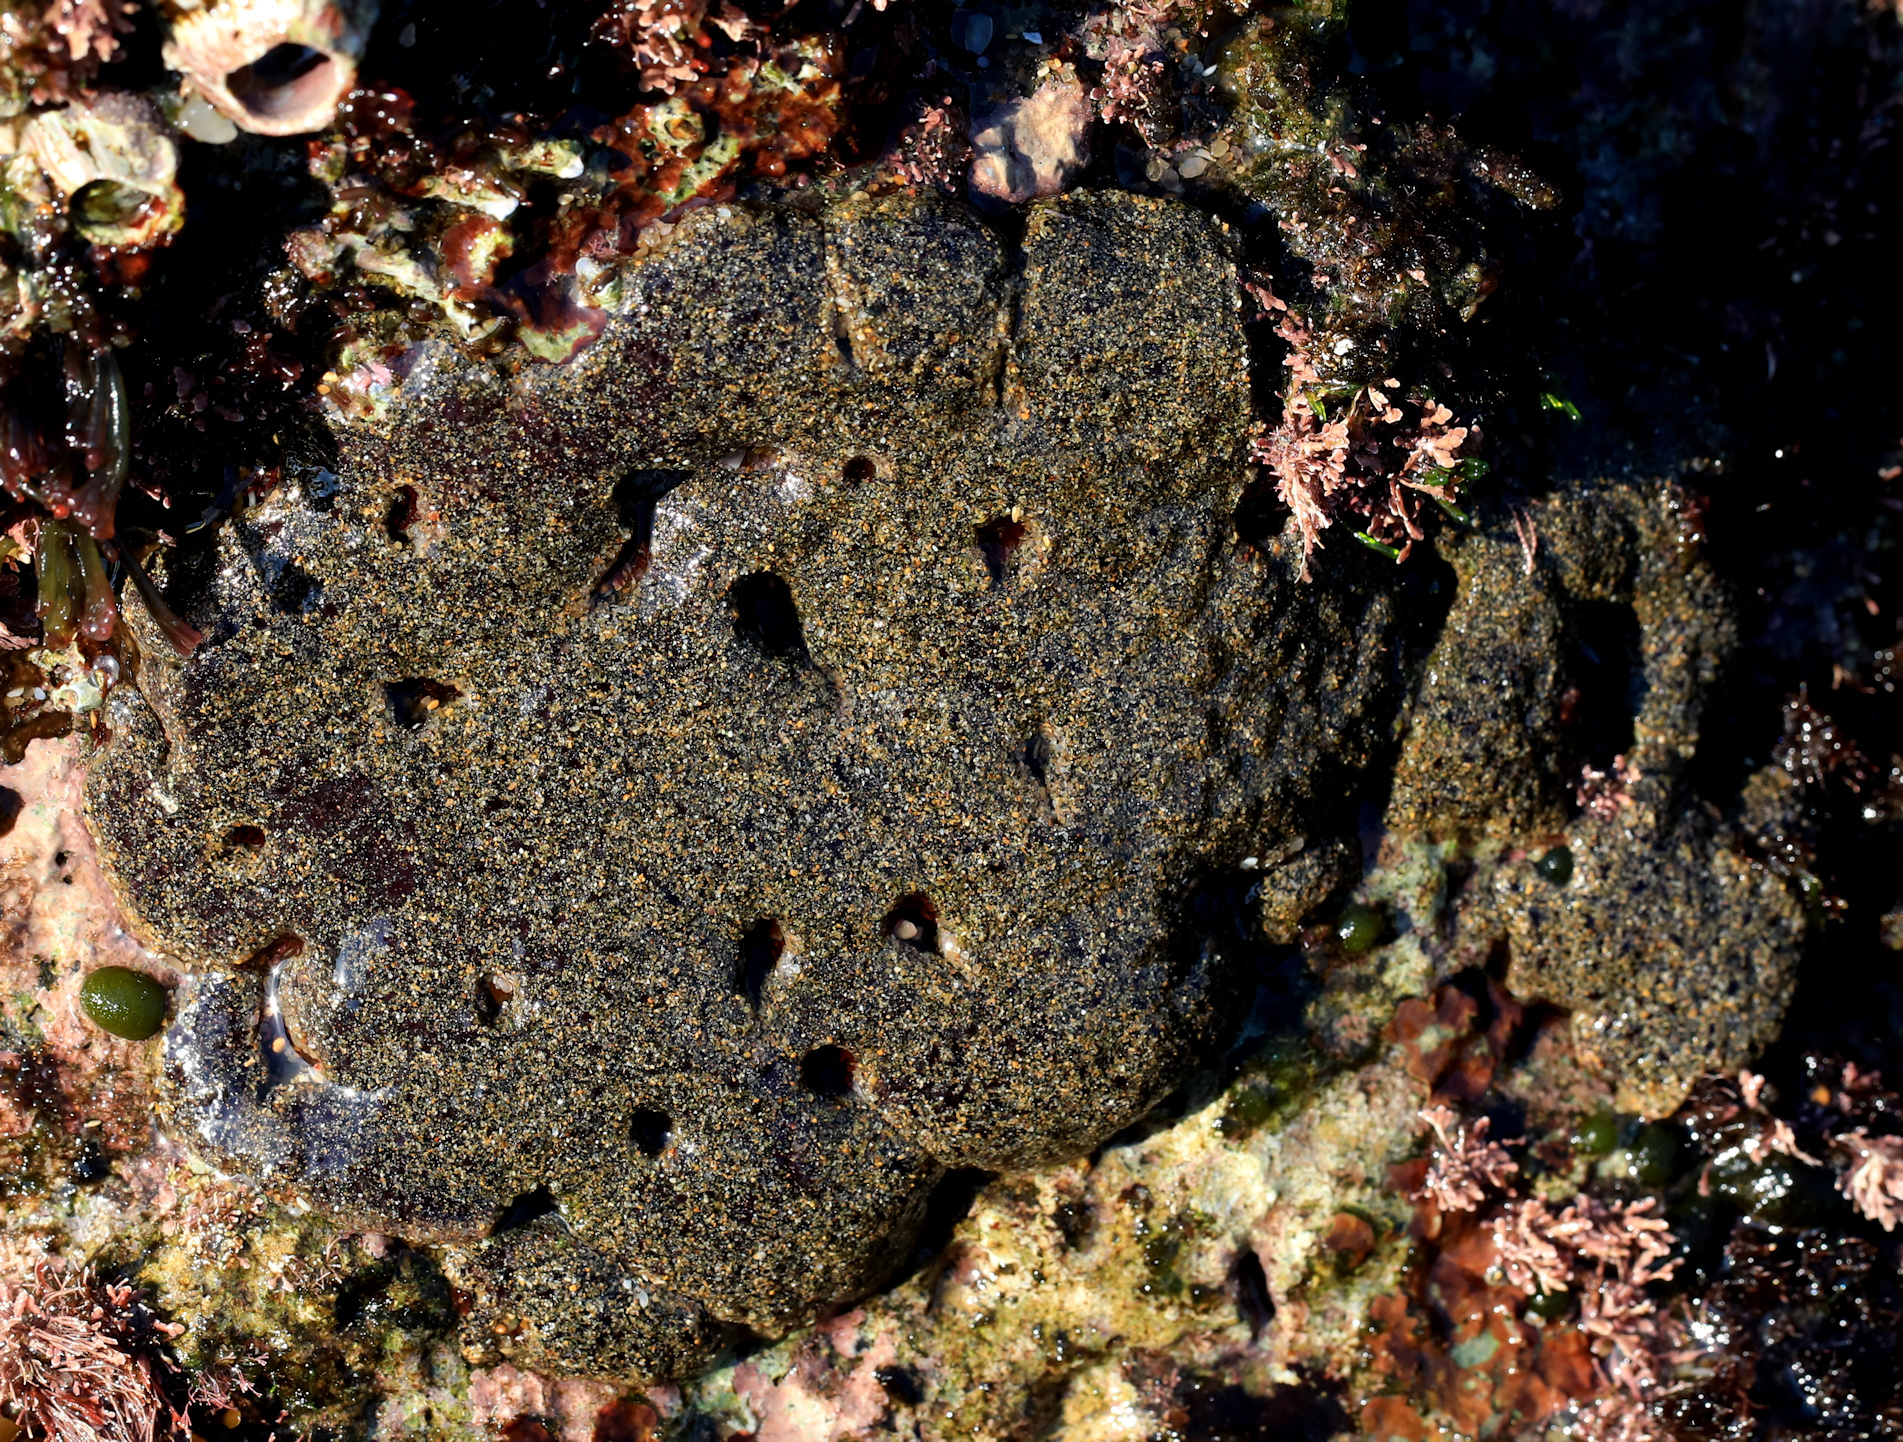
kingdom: Animalia
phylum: Porifera
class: Demospongiae
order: Poecilosclerida
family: Iotrochotidae
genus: Iotrochota
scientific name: Iotrochota purpurea
